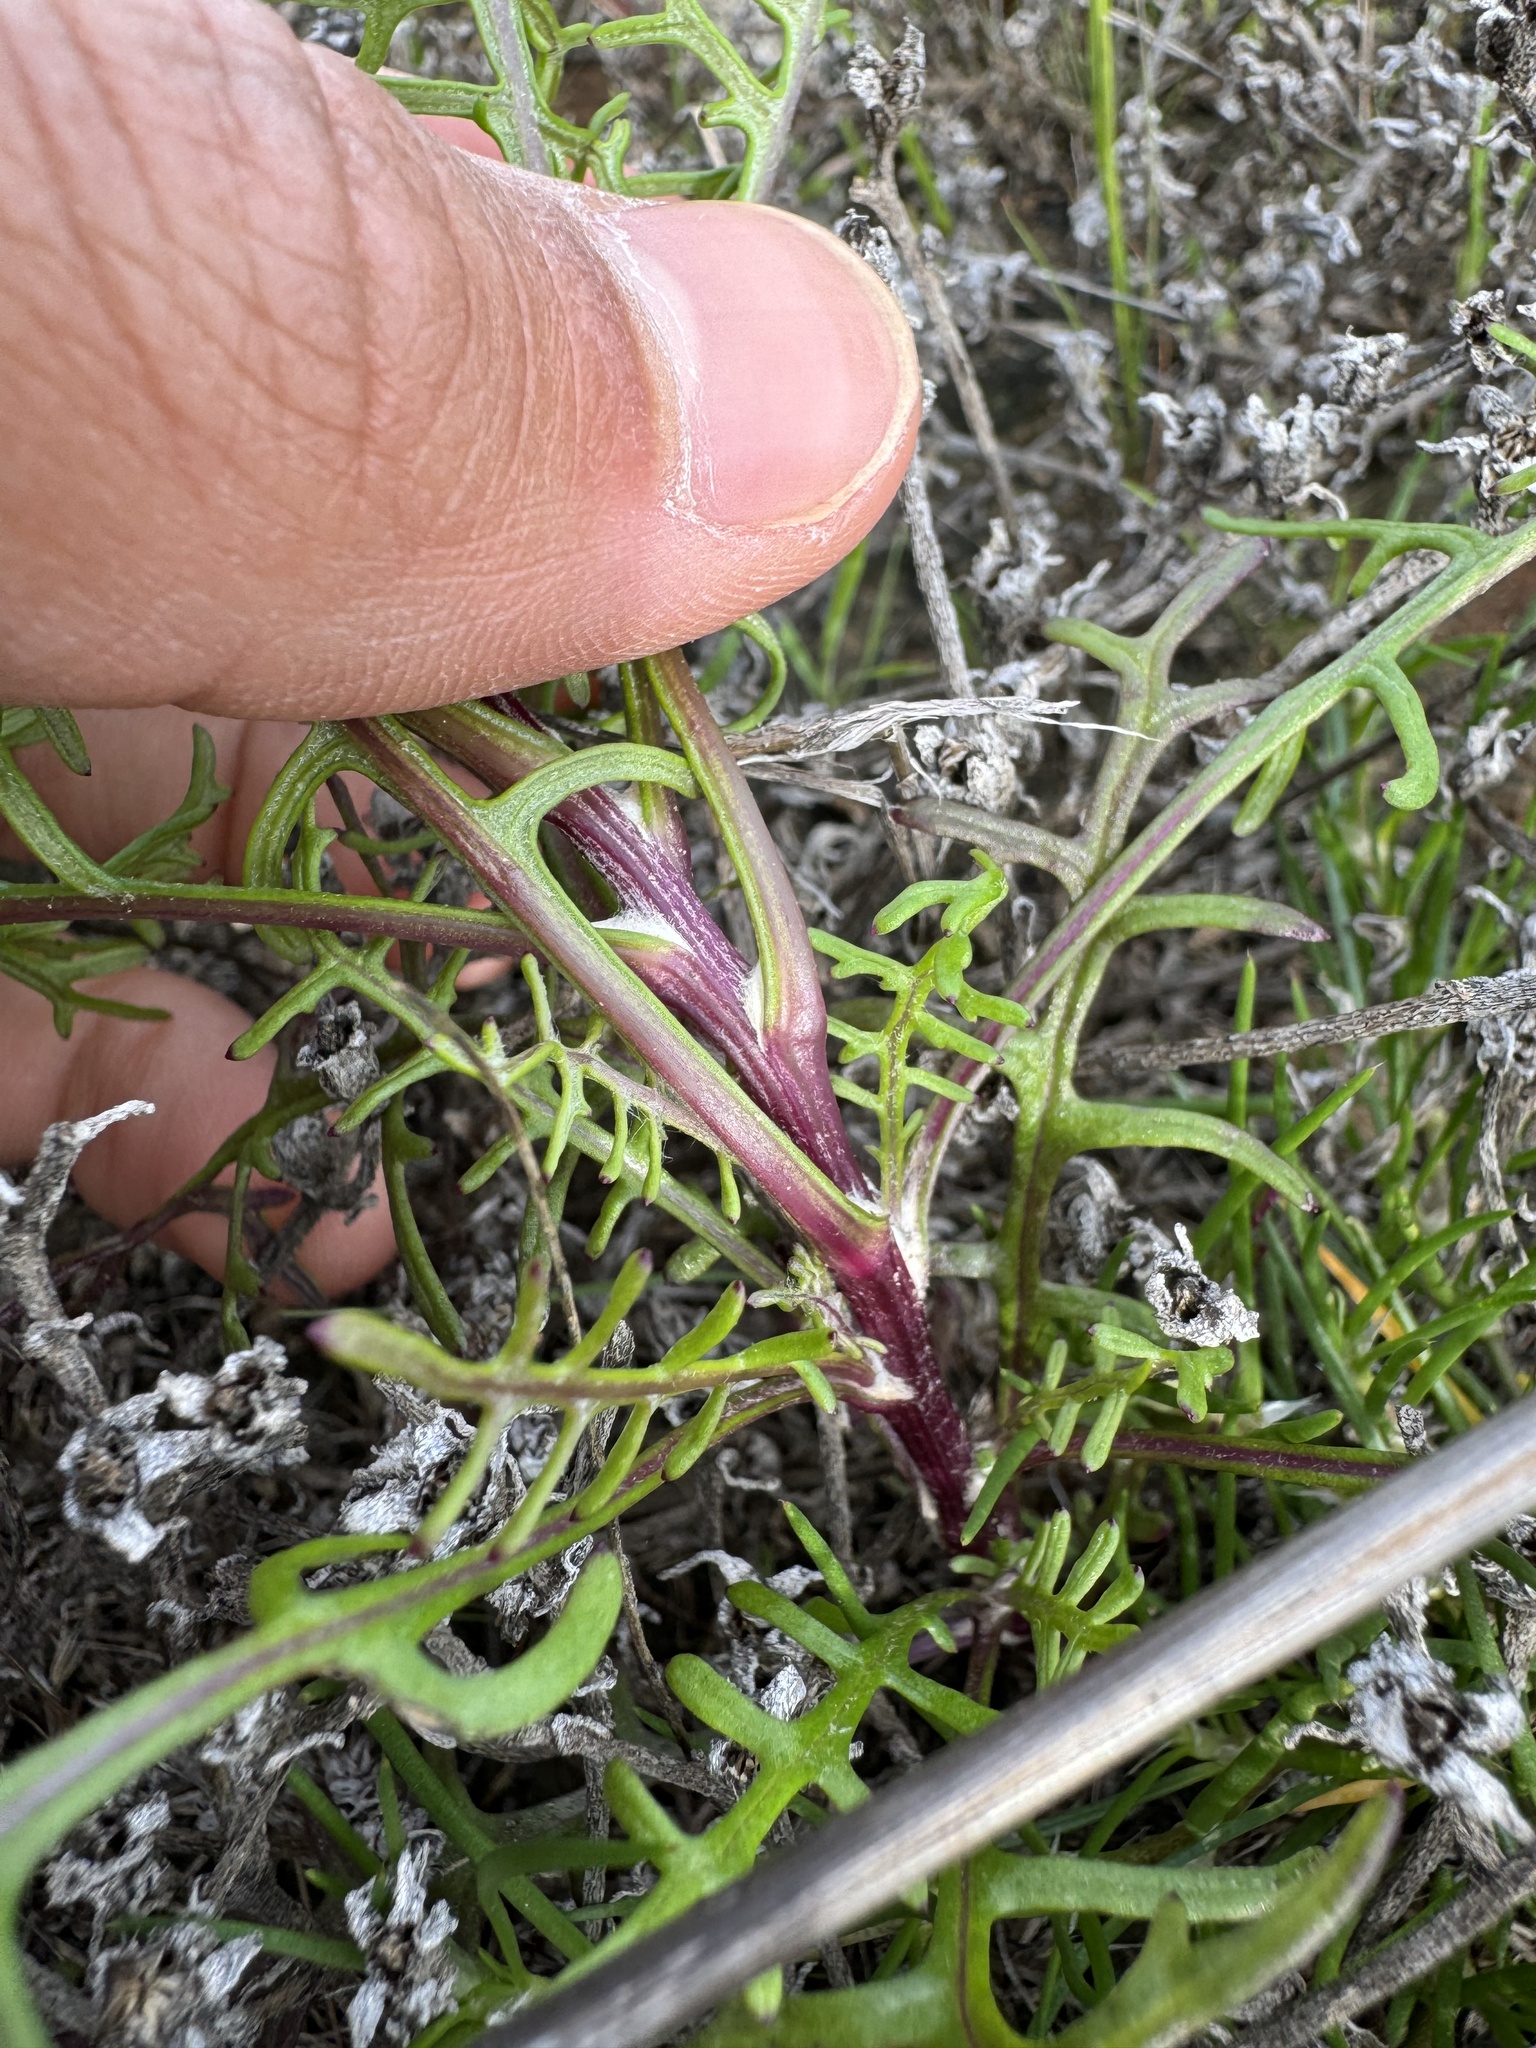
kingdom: Plantae
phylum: Tracheophyta
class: Magnoliopsida
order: Asterales
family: Asteraceae
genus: Senecio
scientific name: Senecio lyonii
